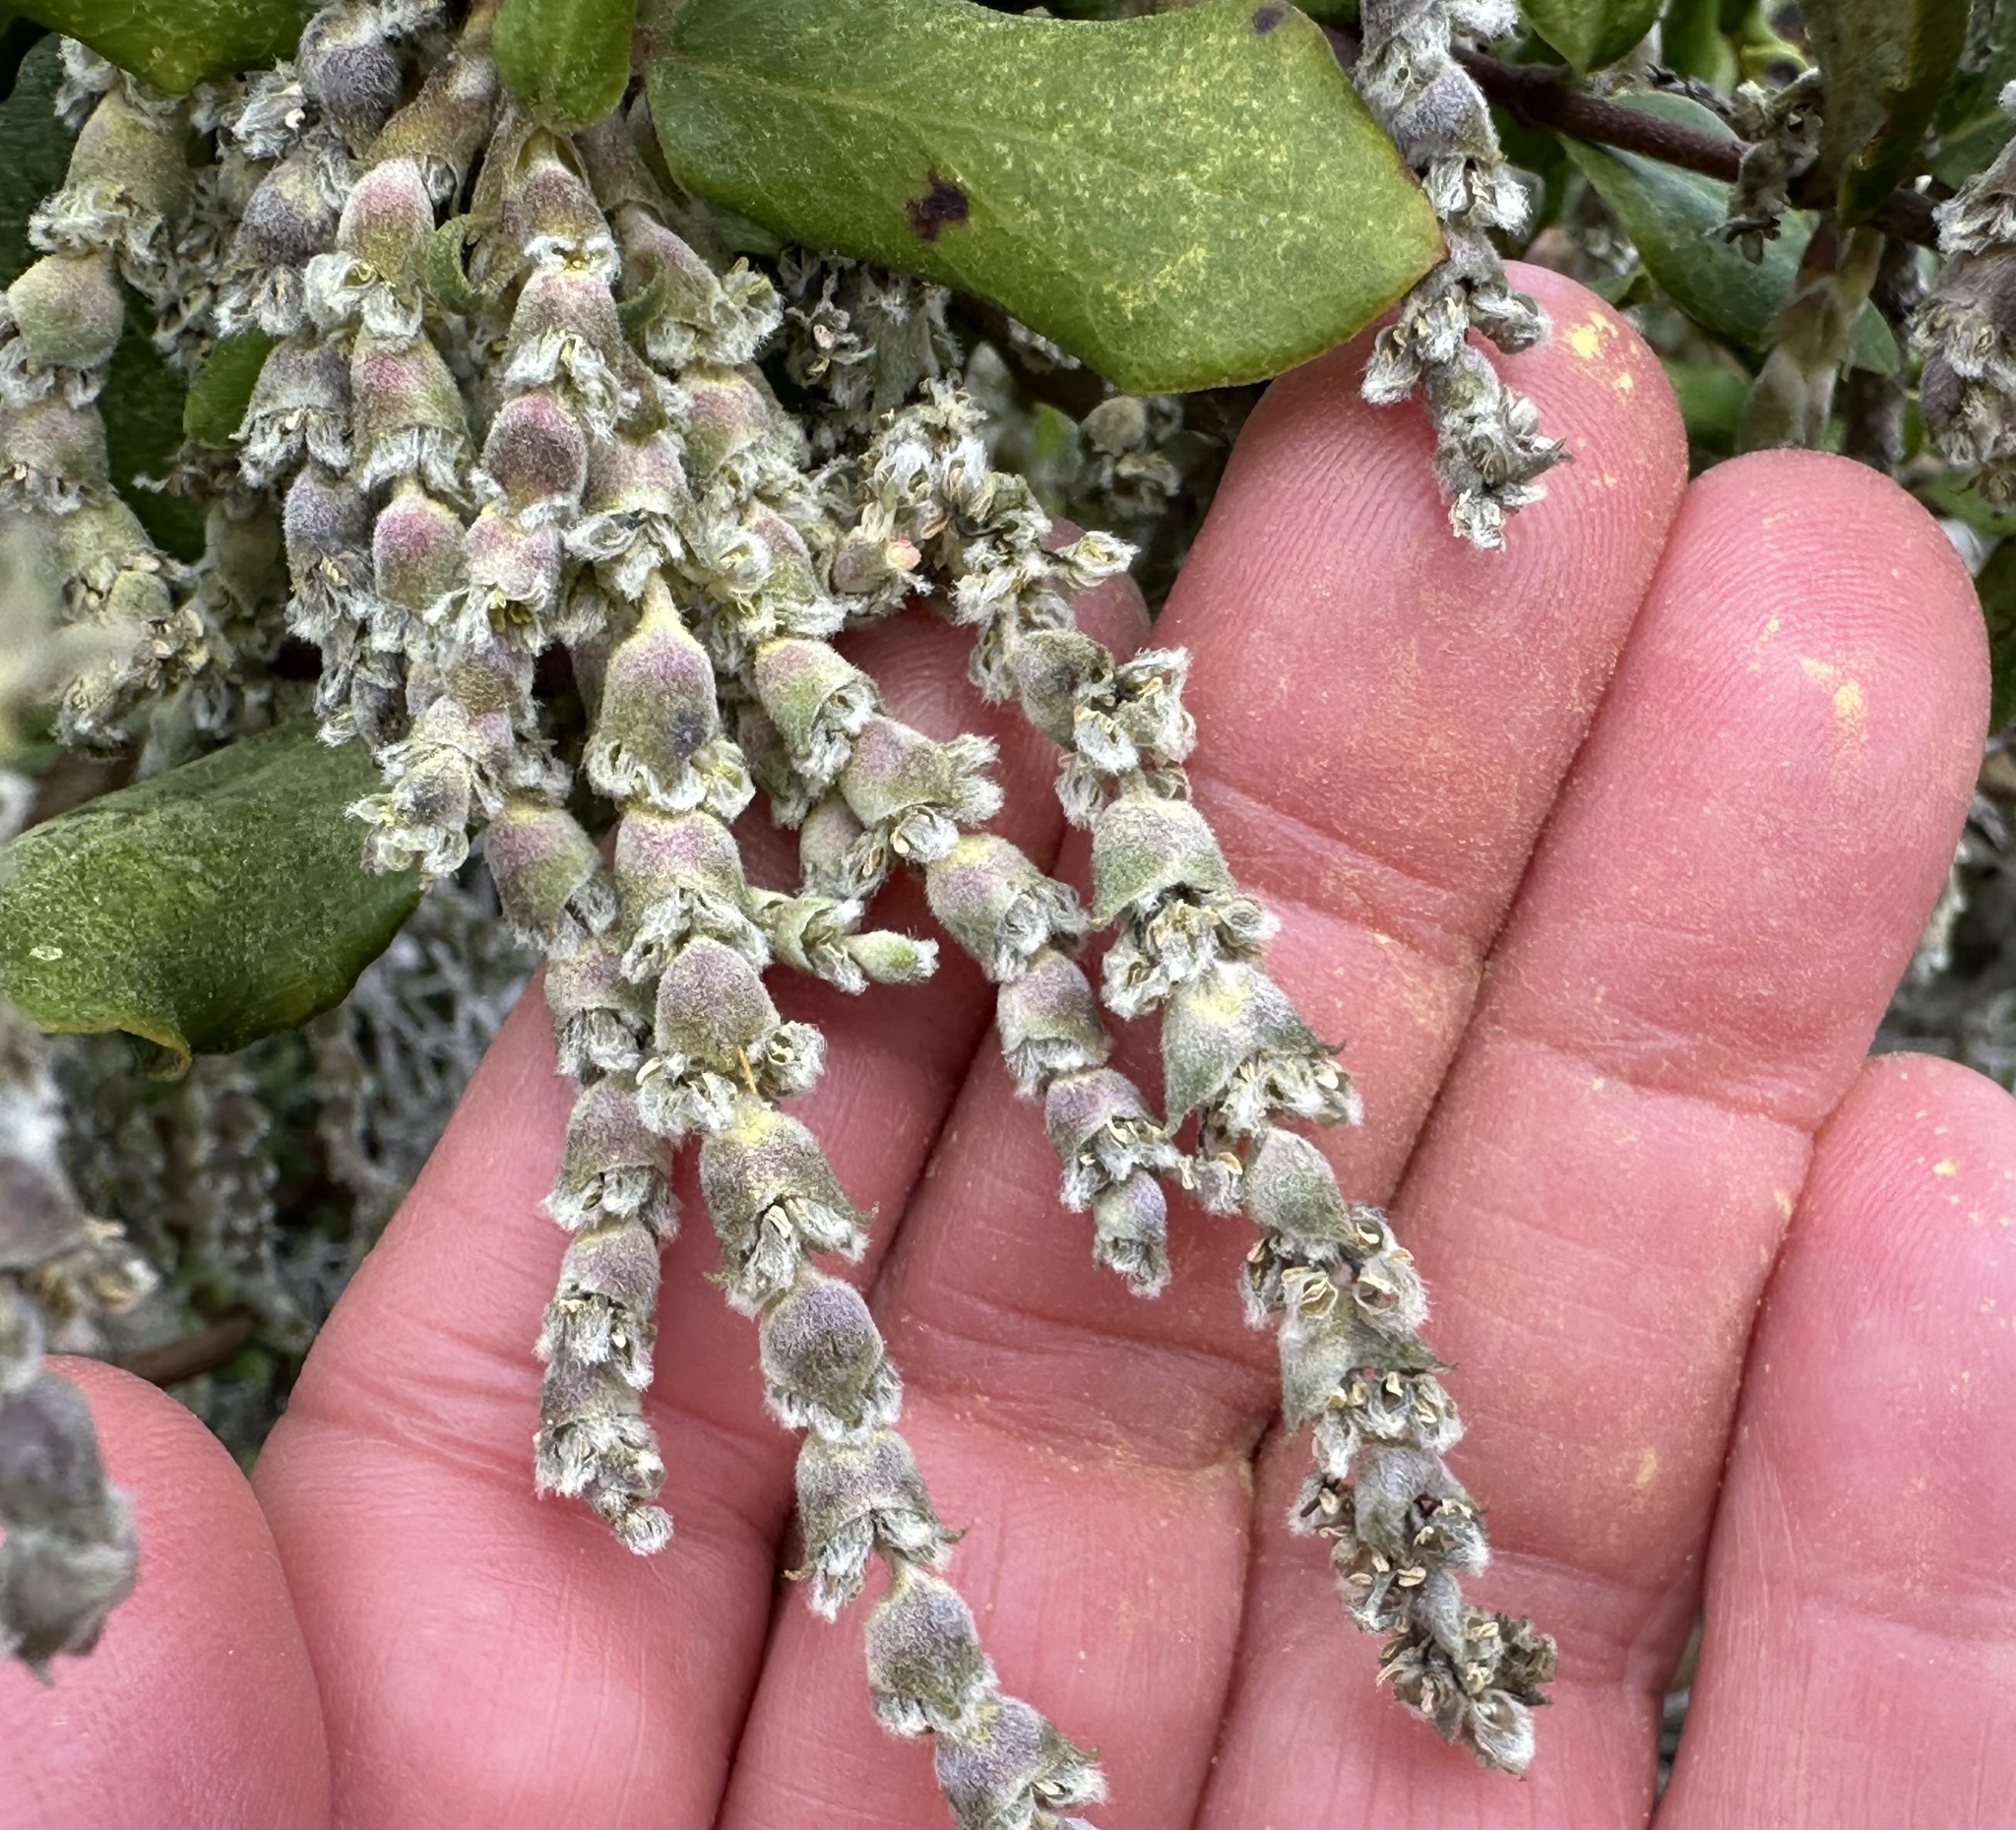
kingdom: Plantae
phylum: Tracheophyta
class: Magnoliopsida
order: Garryales
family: Garryaceae
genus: Garrya
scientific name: Garrya elliptica
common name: Silk-tassel
